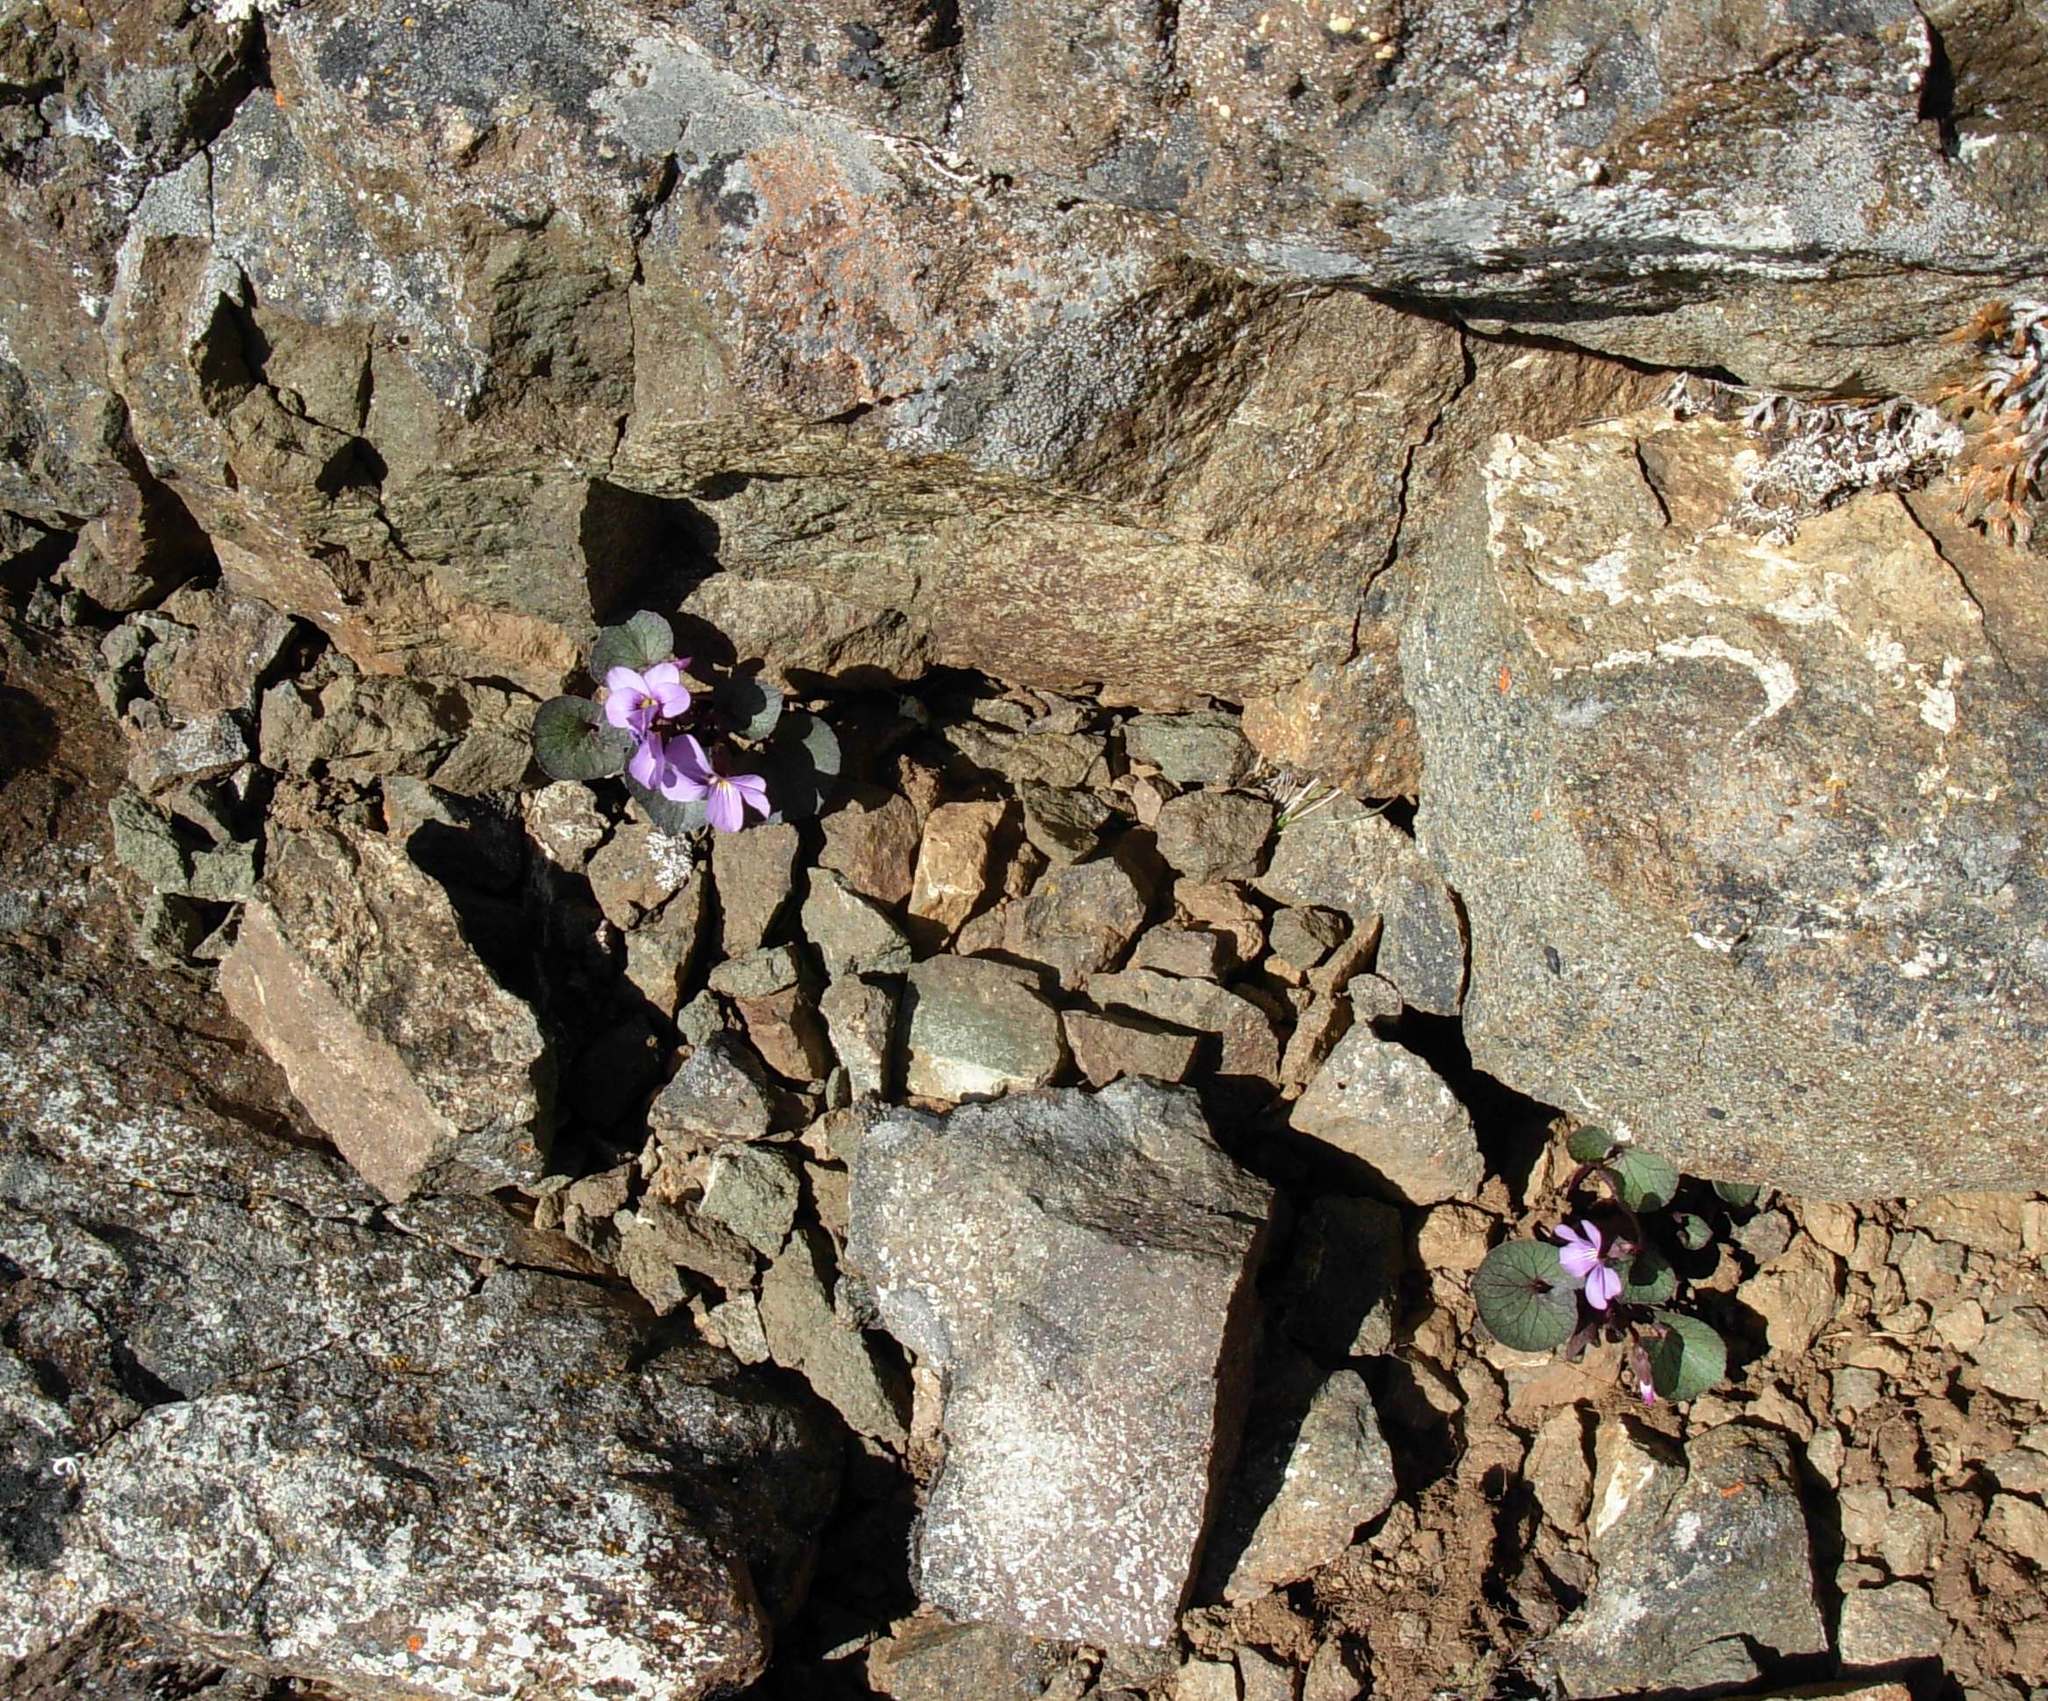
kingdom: Plantae
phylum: Tracheophyta
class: Magnoliopsida
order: Malpighiales
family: Violaceae
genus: Viola
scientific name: Viola flettii
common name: Rock violet
